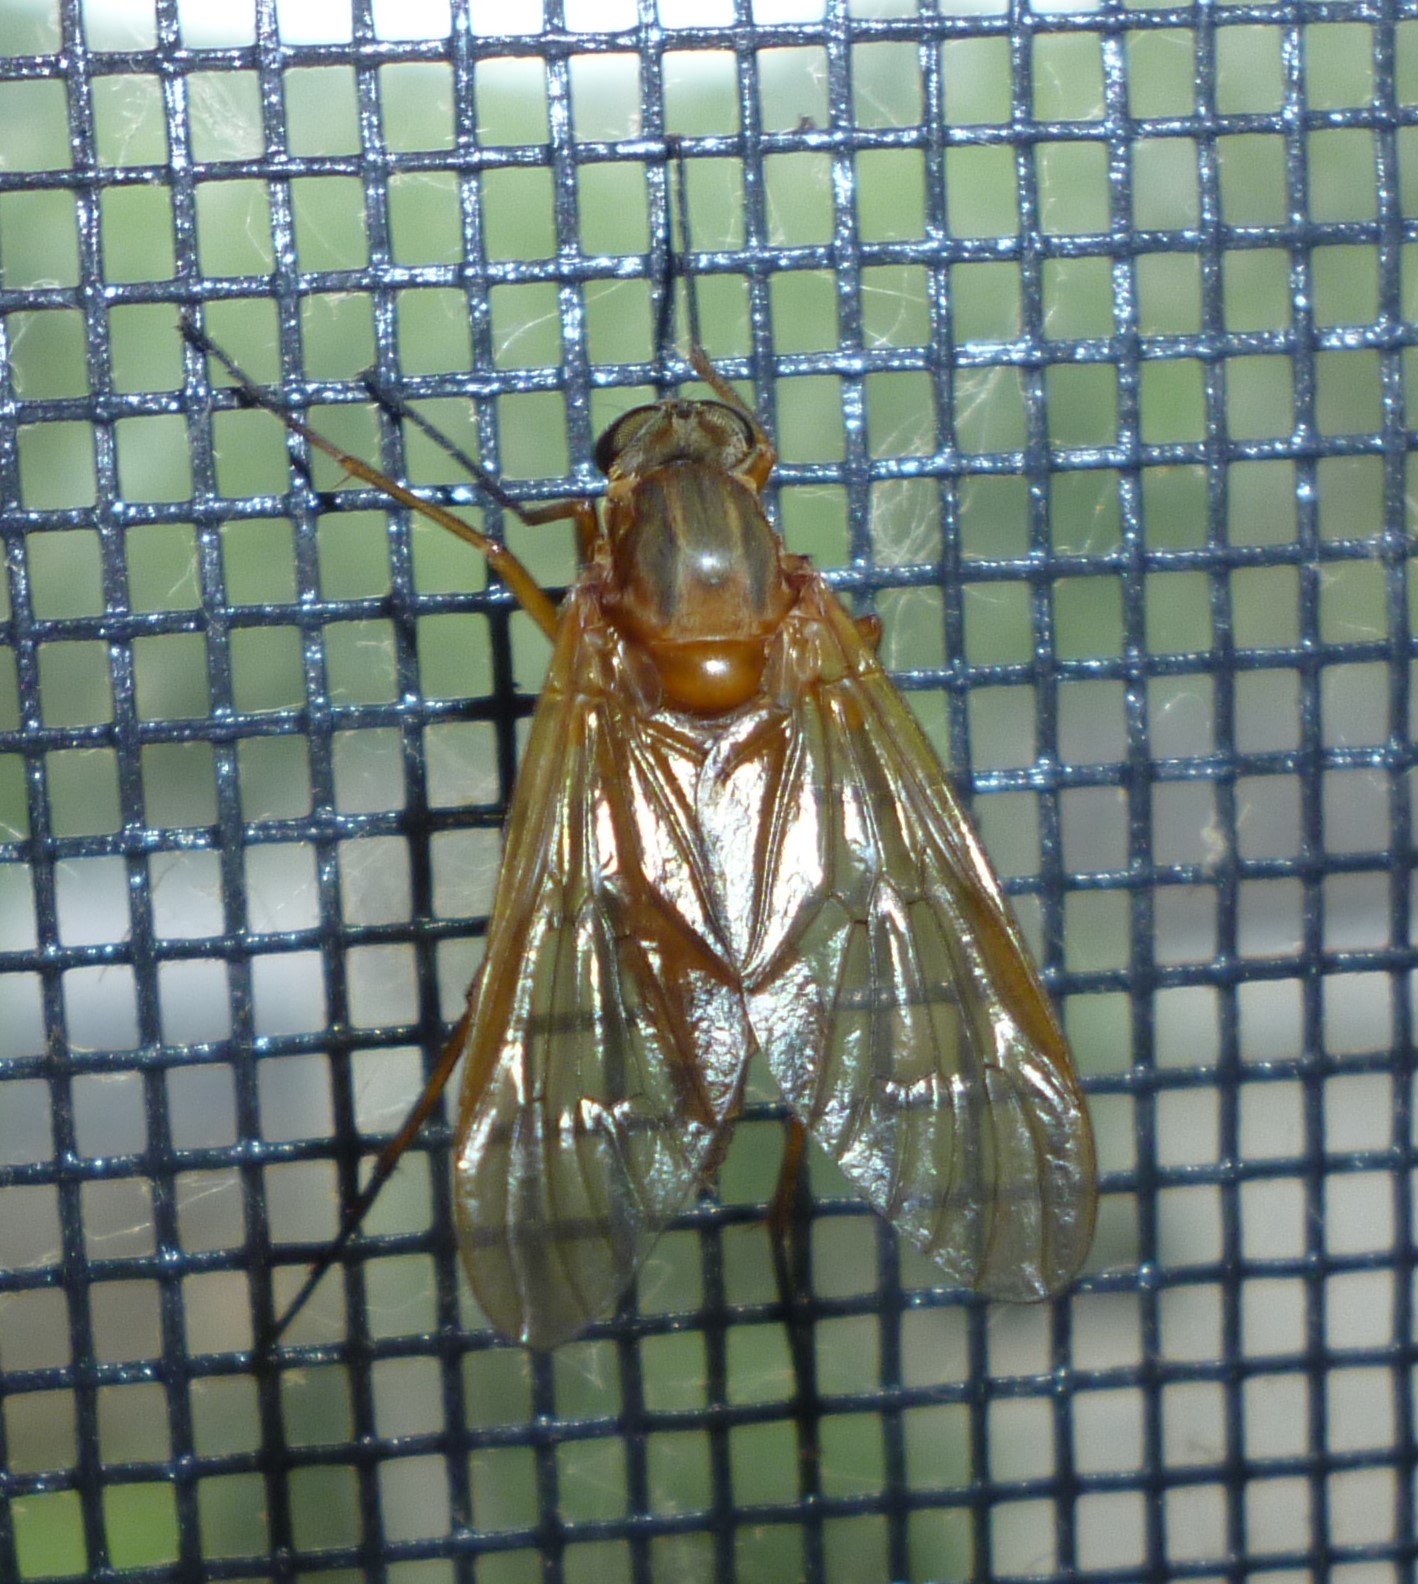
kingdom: Animalia
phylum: Arthropoda
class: Insecta
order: Diptera
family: Rhagionidae
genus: Rhagio
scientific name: Rhagio tringaria
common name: Marsh snipefly
